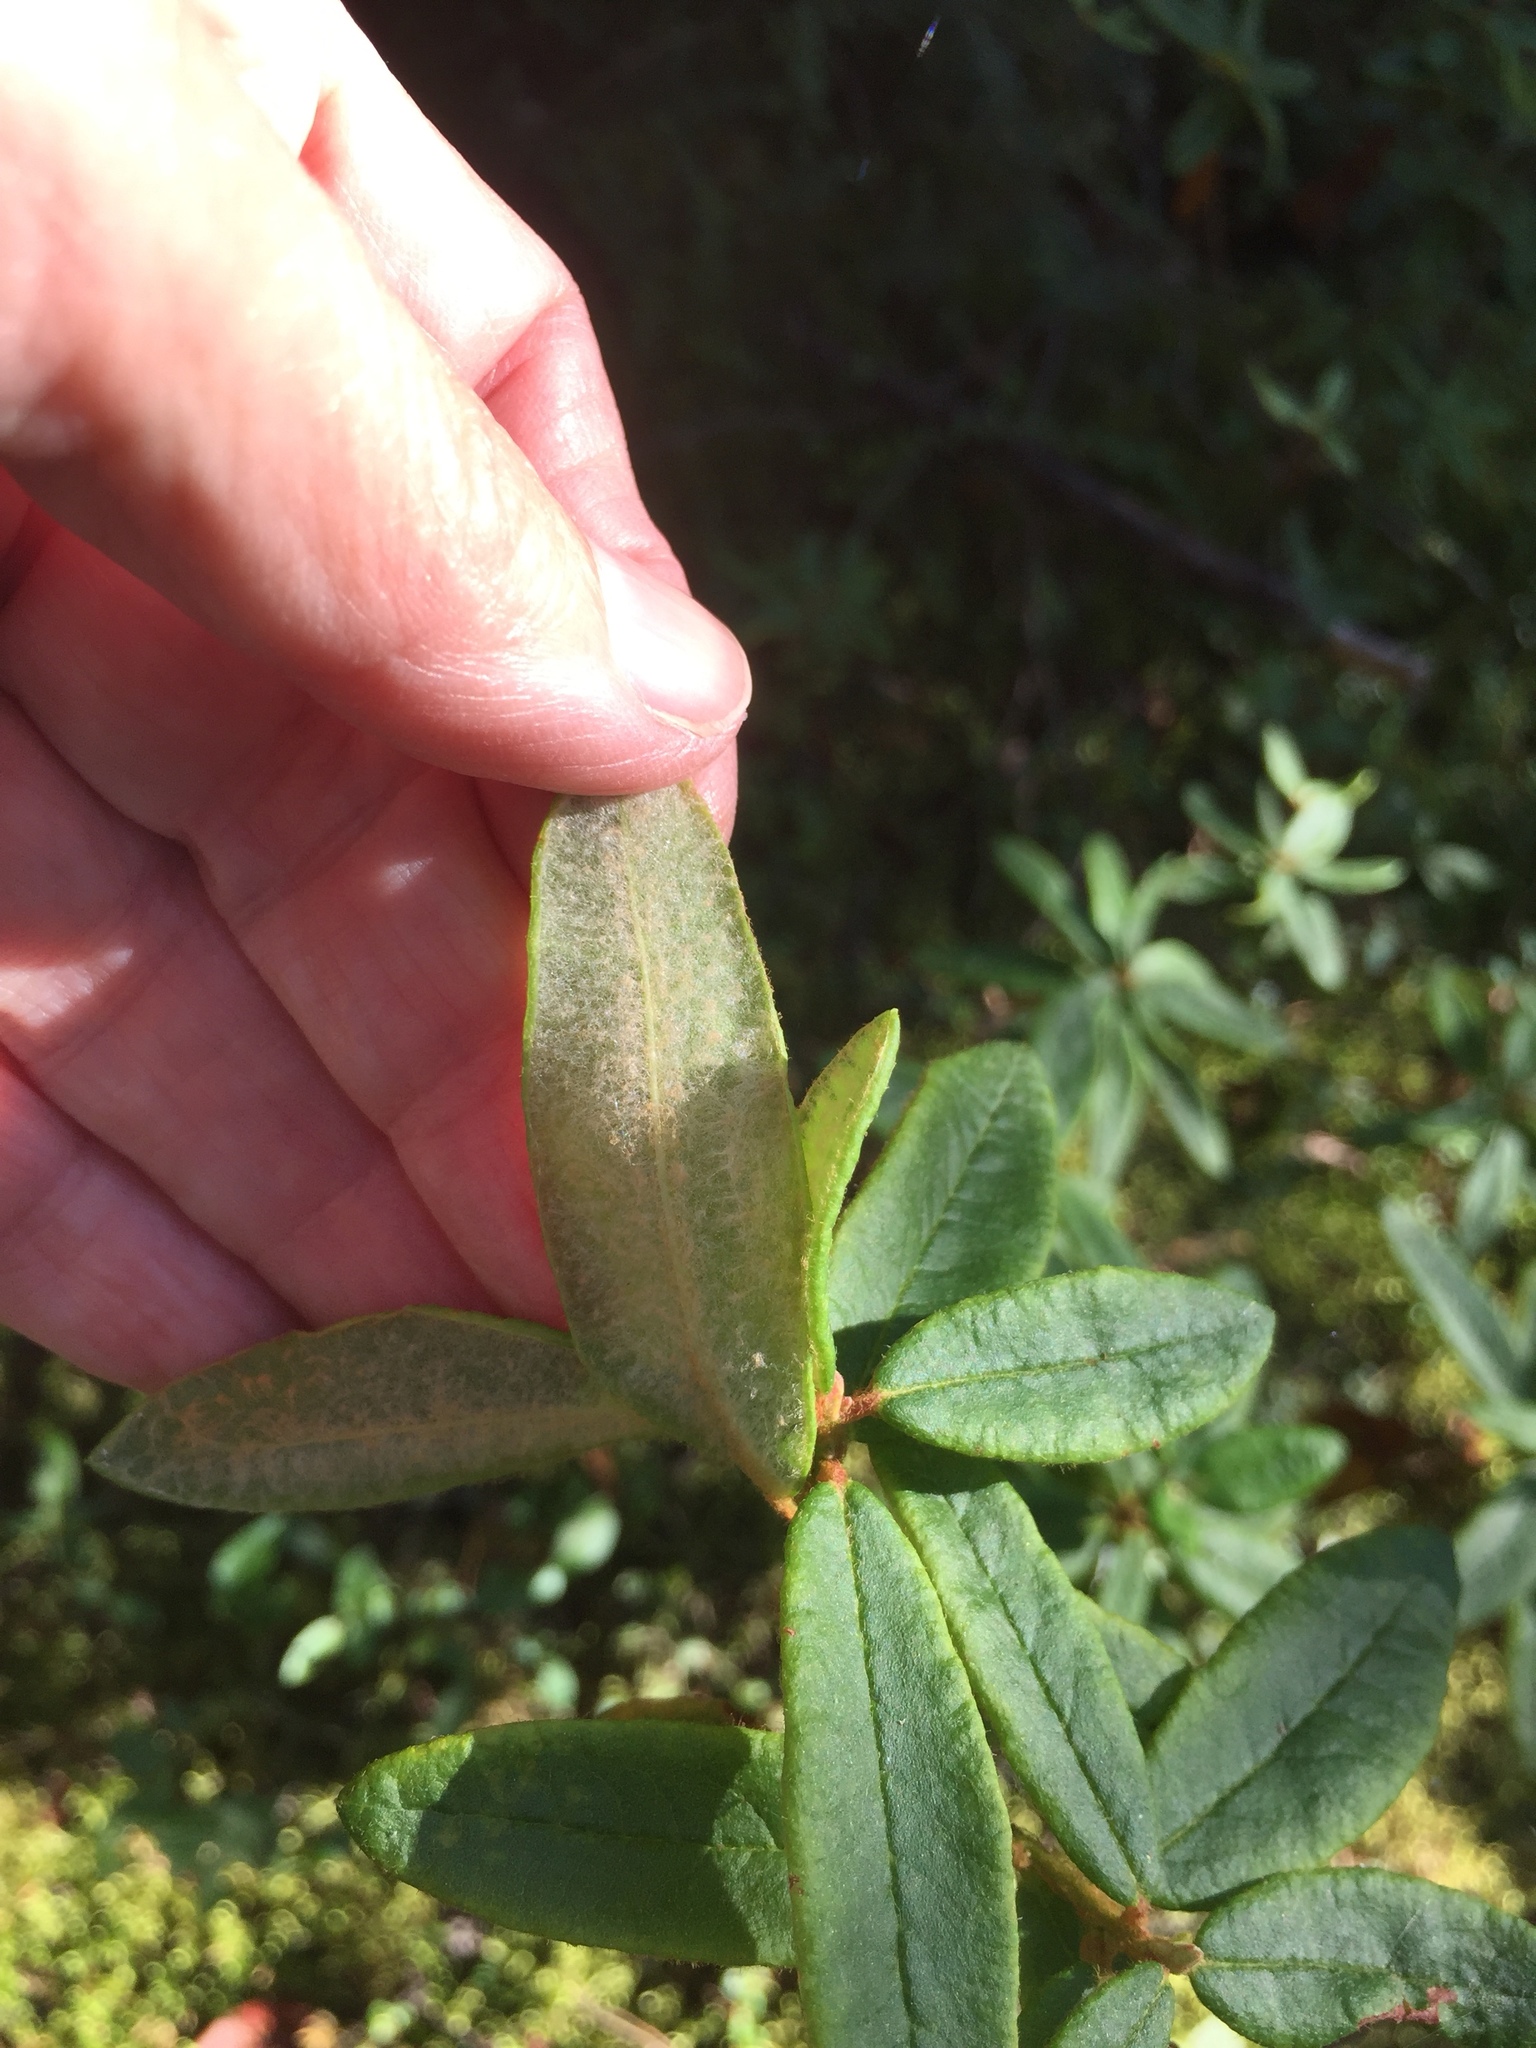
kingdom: Plantae
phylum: Tracheophyta
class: Magnoliopsida
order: Ericales
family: Ericaceae
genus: Rhododendron
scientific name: Rhododendron groenlandicum
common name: Bog labrador tea
